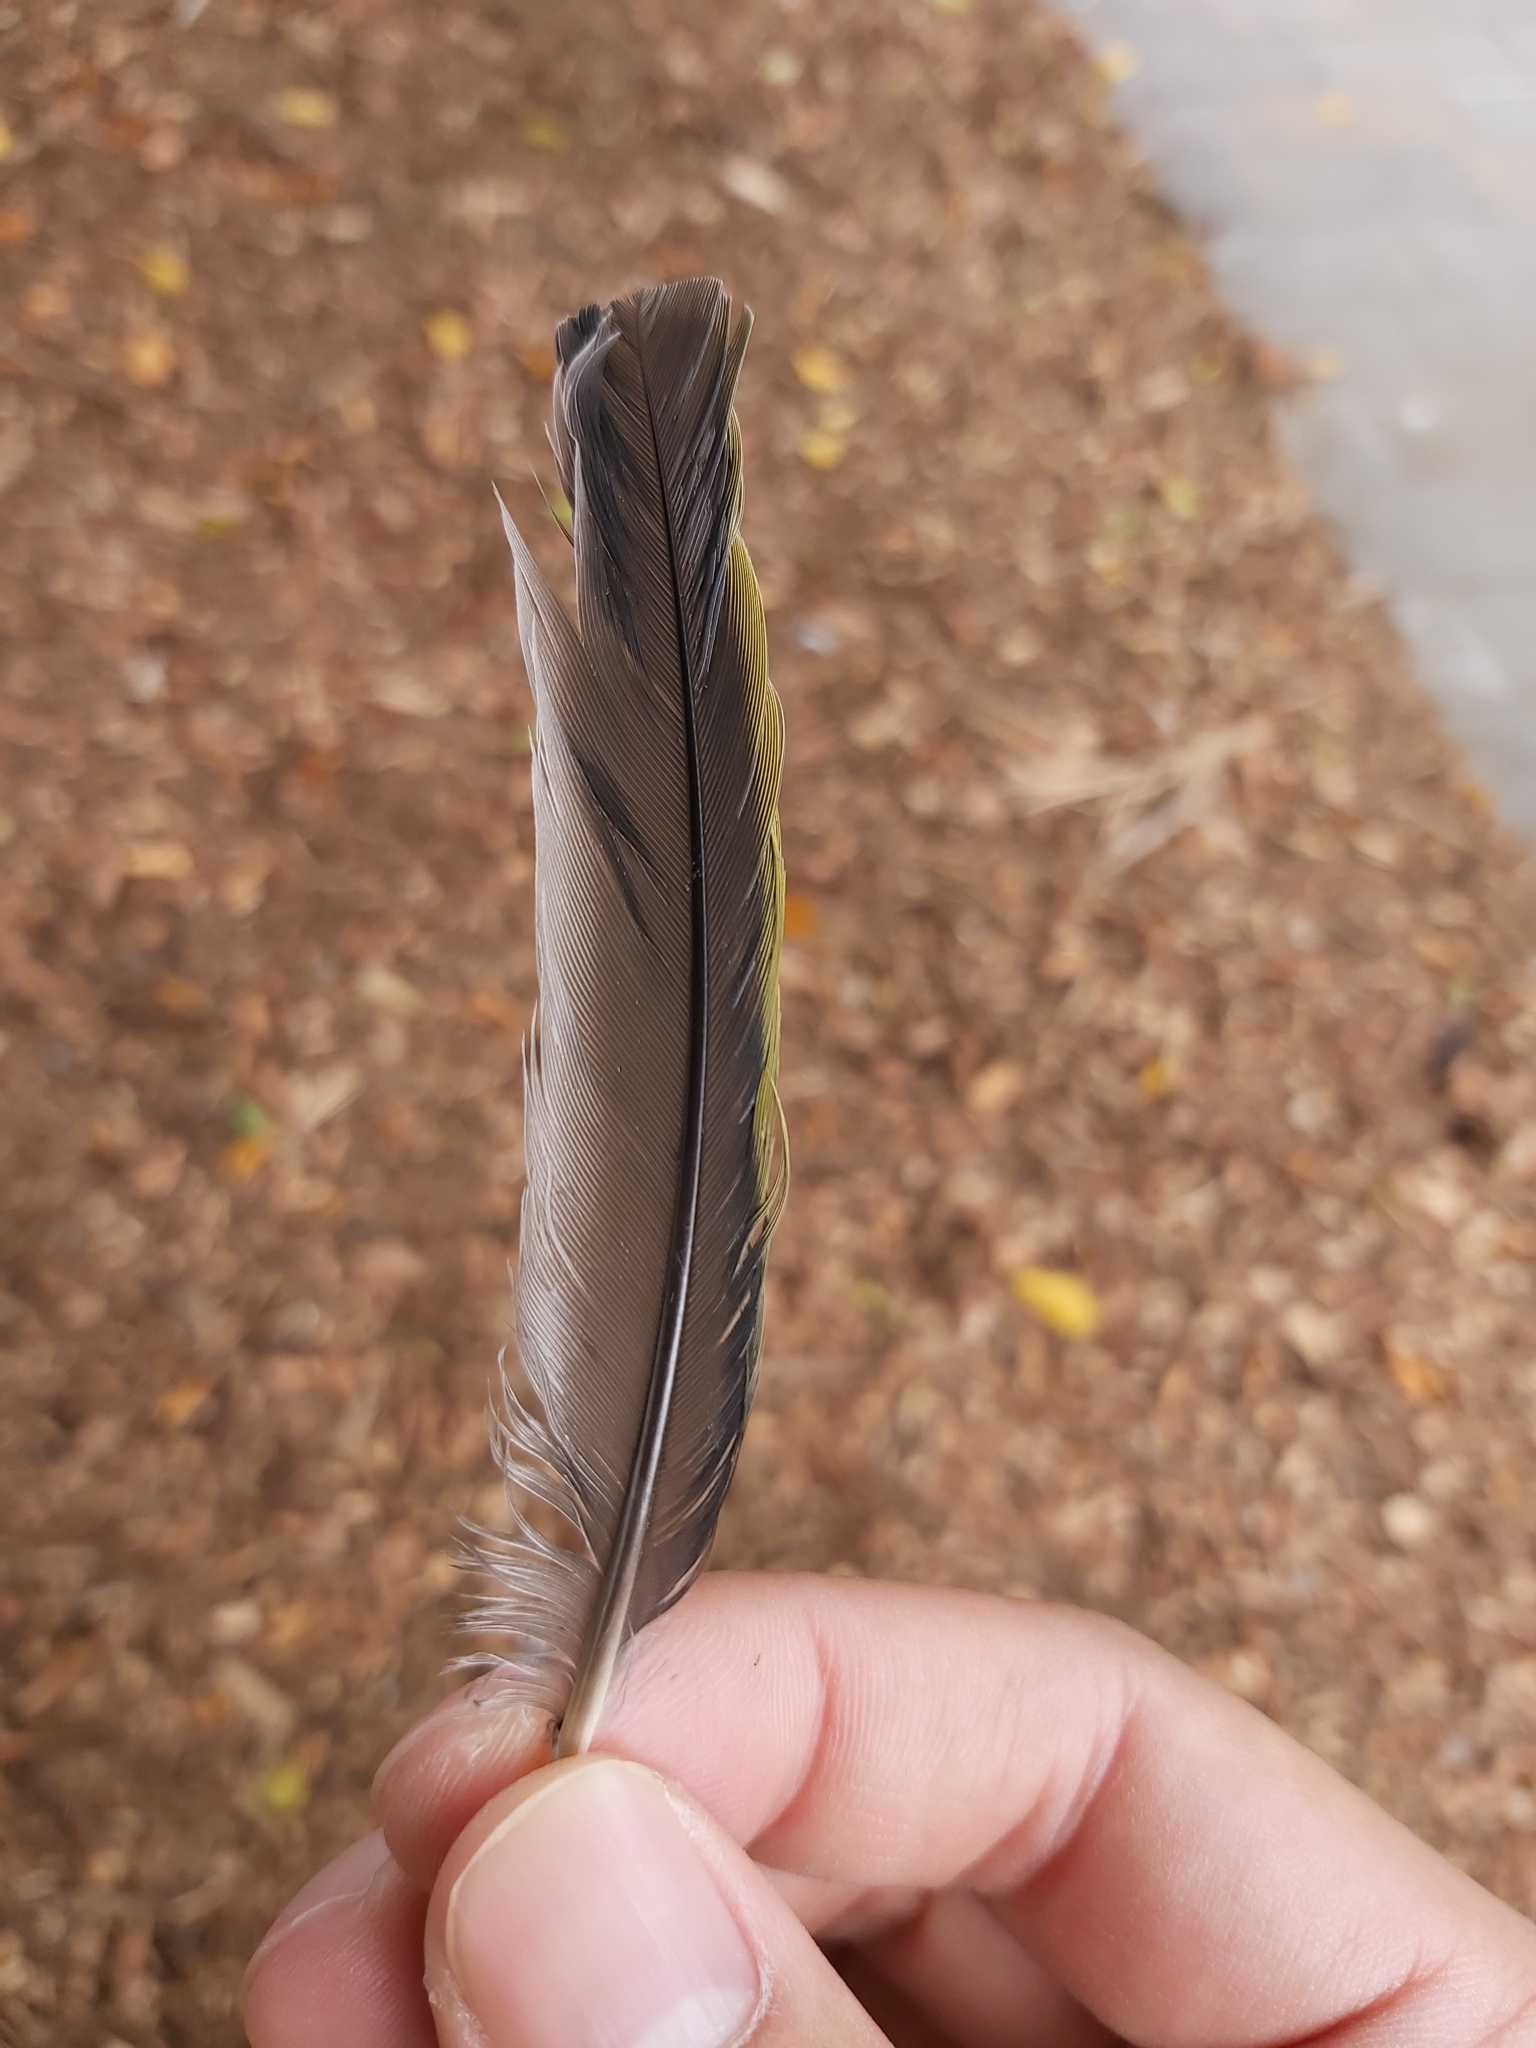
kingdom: Animalia
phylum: Chordata
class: Aves
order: Passeriformes
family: Oriolidae
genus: Sphecotheres
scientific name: Sphecotheres vieilloti
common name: Australasian figbird
